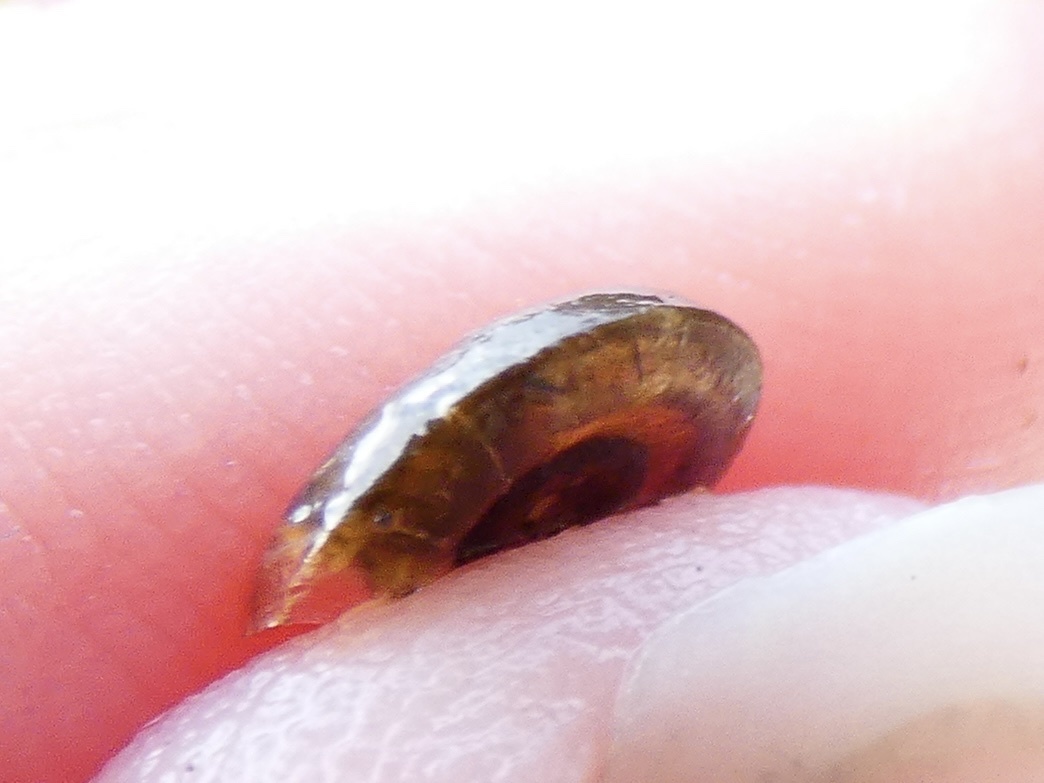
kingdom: Animalia
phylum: Mollusca
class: Gastropoda
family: Planorbidae
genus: Planorbis
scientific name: Planorbis planorbis
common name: Margined ramshorn
